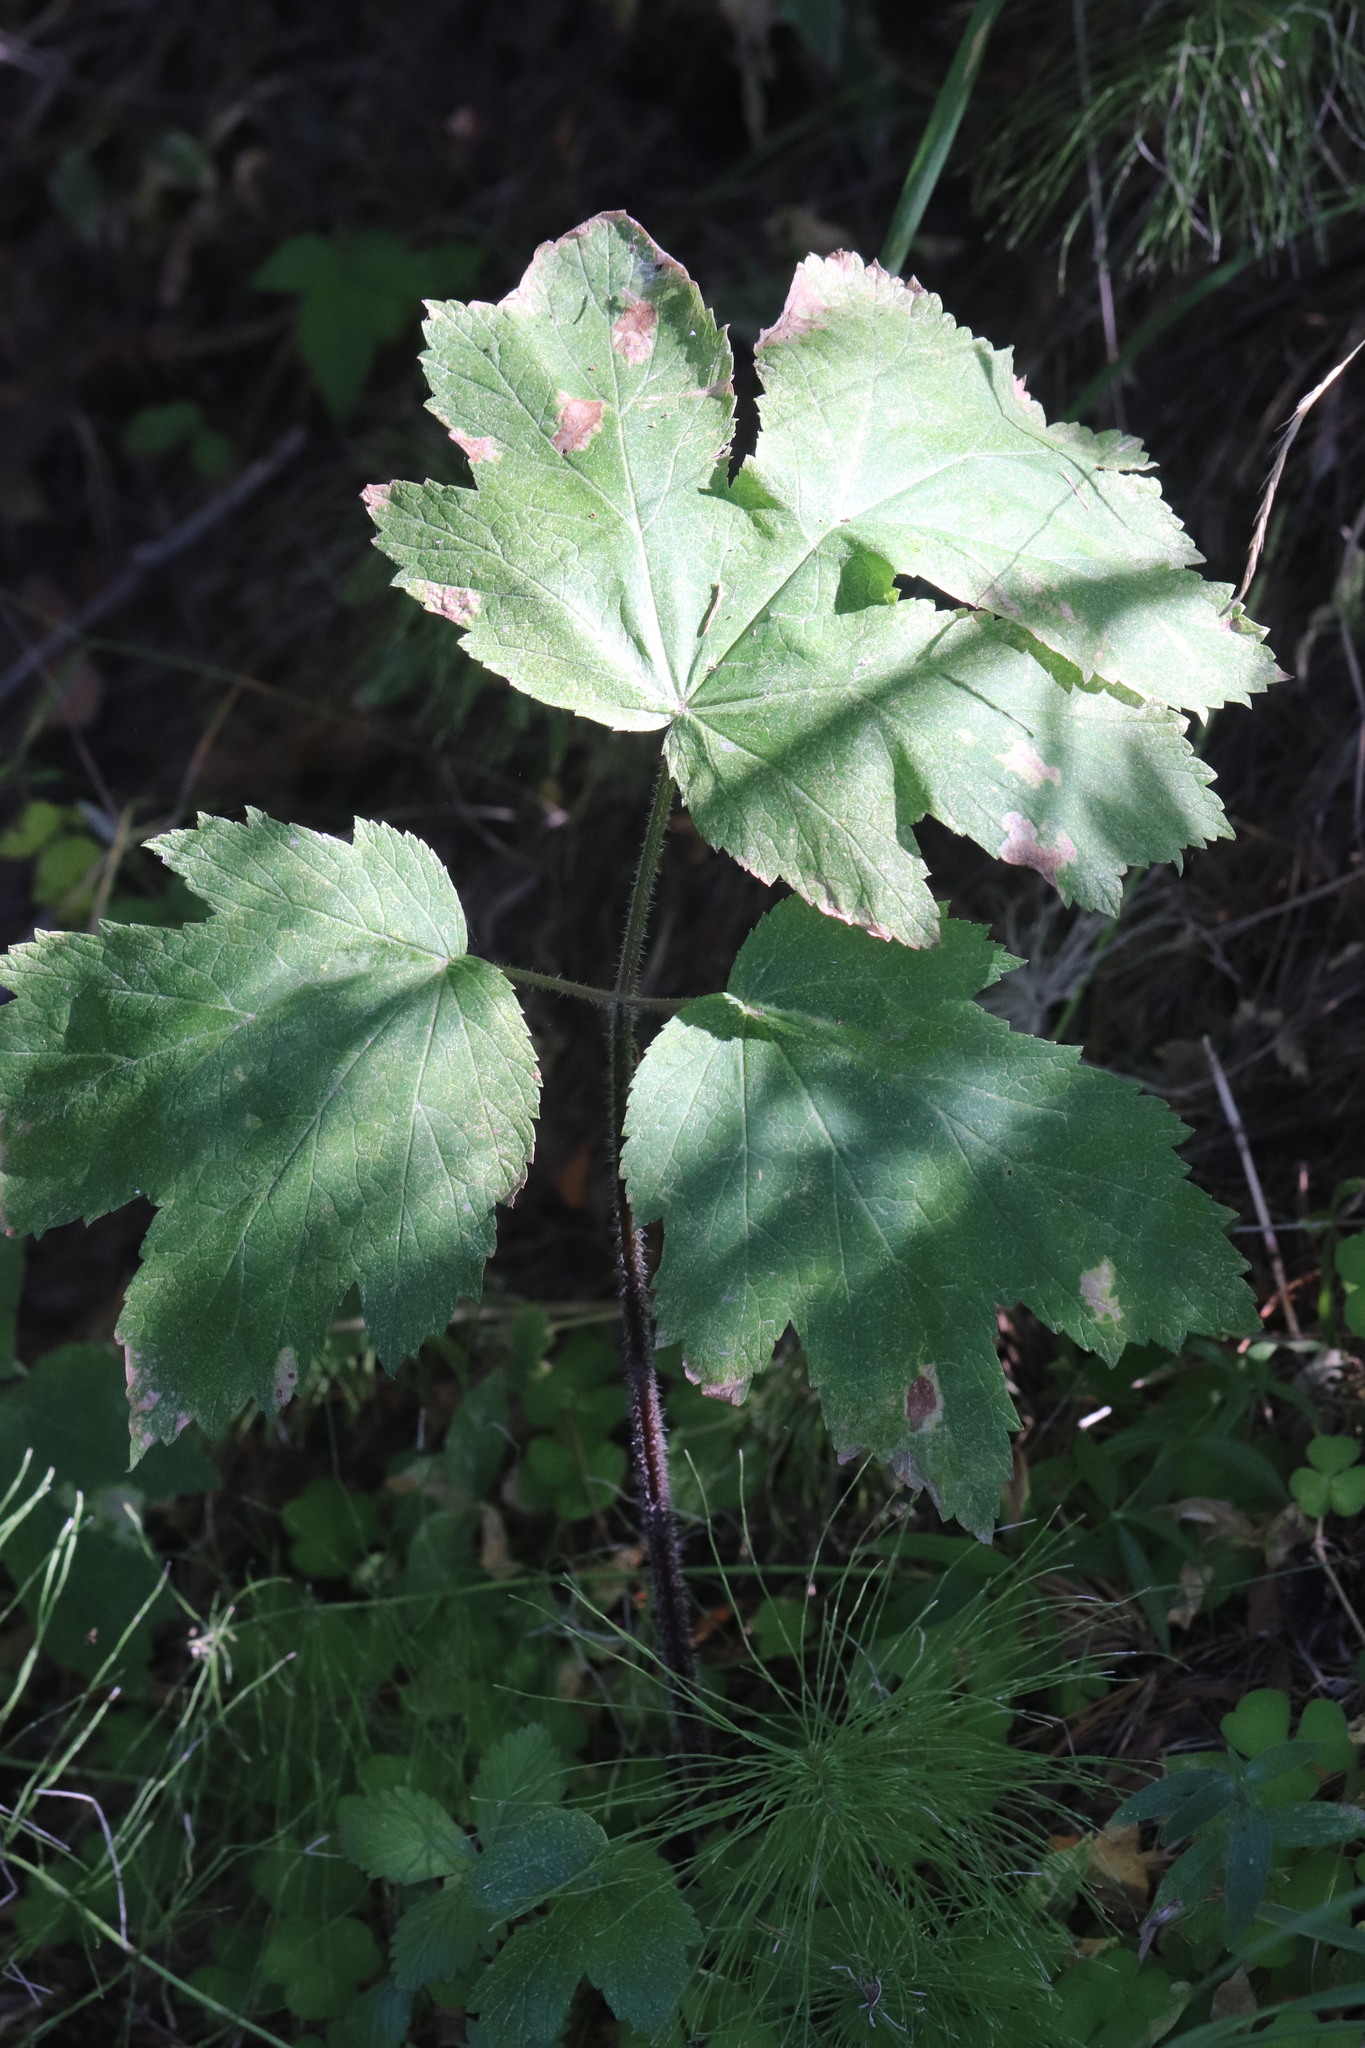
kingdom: Plantae
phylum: Tracheophyta
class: Magnoliopsida
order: Apiales
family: Apiaceae
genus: Heracleum
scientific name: Heracleum sphondylium
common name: Hogweed
